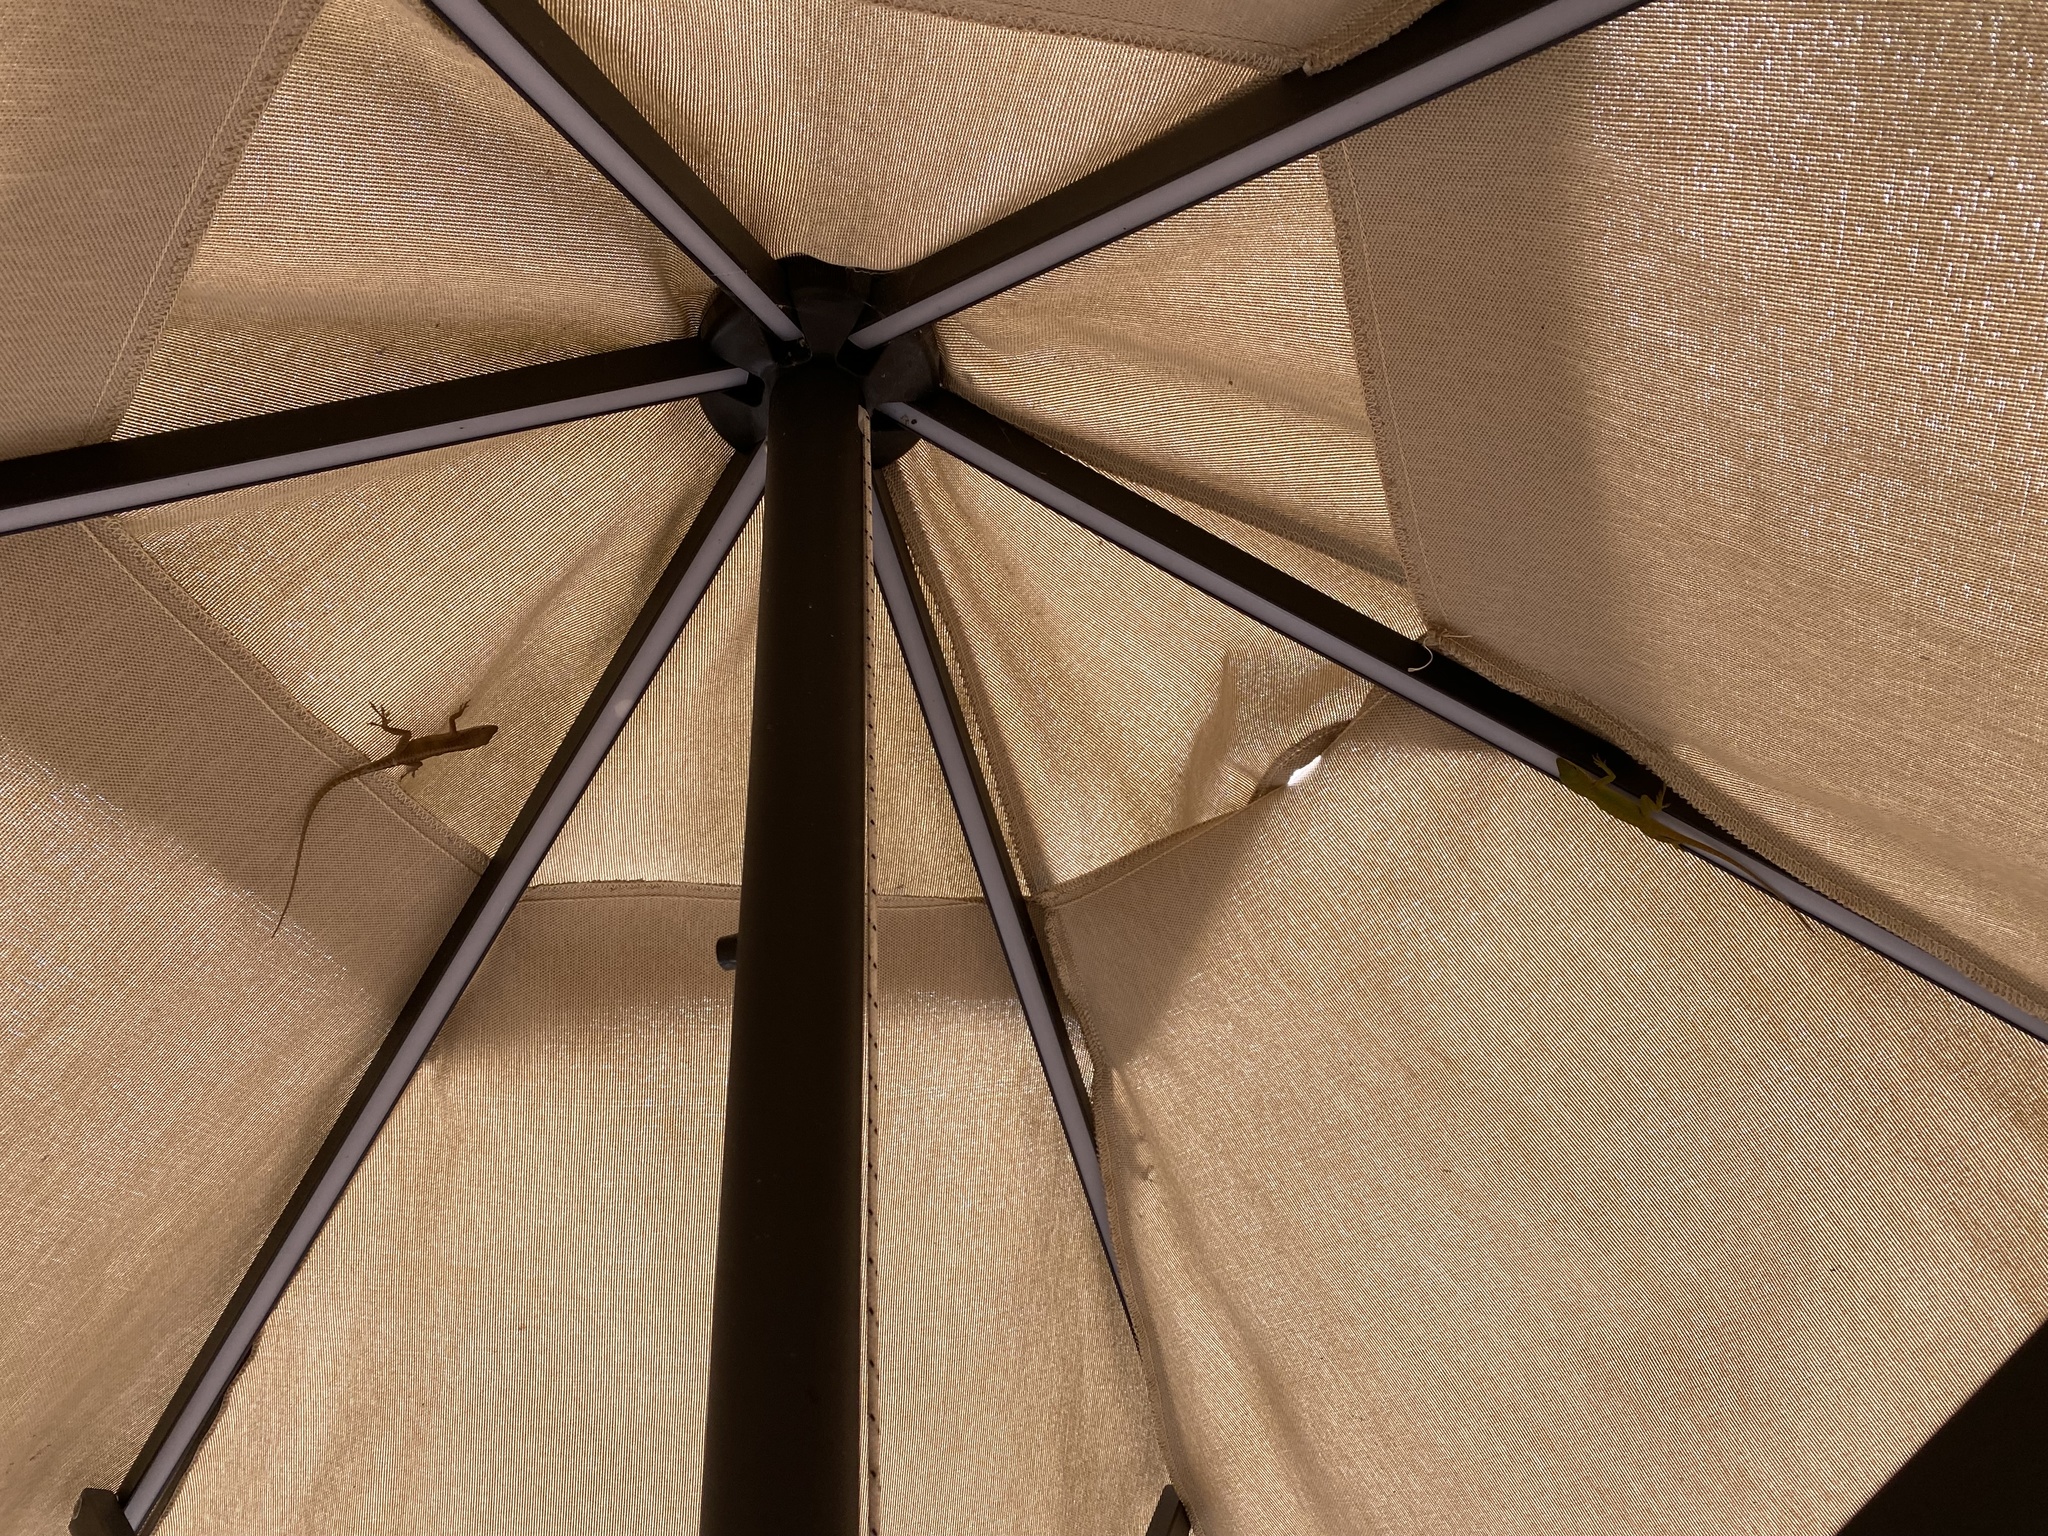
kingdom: Animalia
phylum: Chordata
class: Squamata
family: Dactyloidae
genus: Anolis
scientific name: Anolis carolinensis
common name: Green anole
